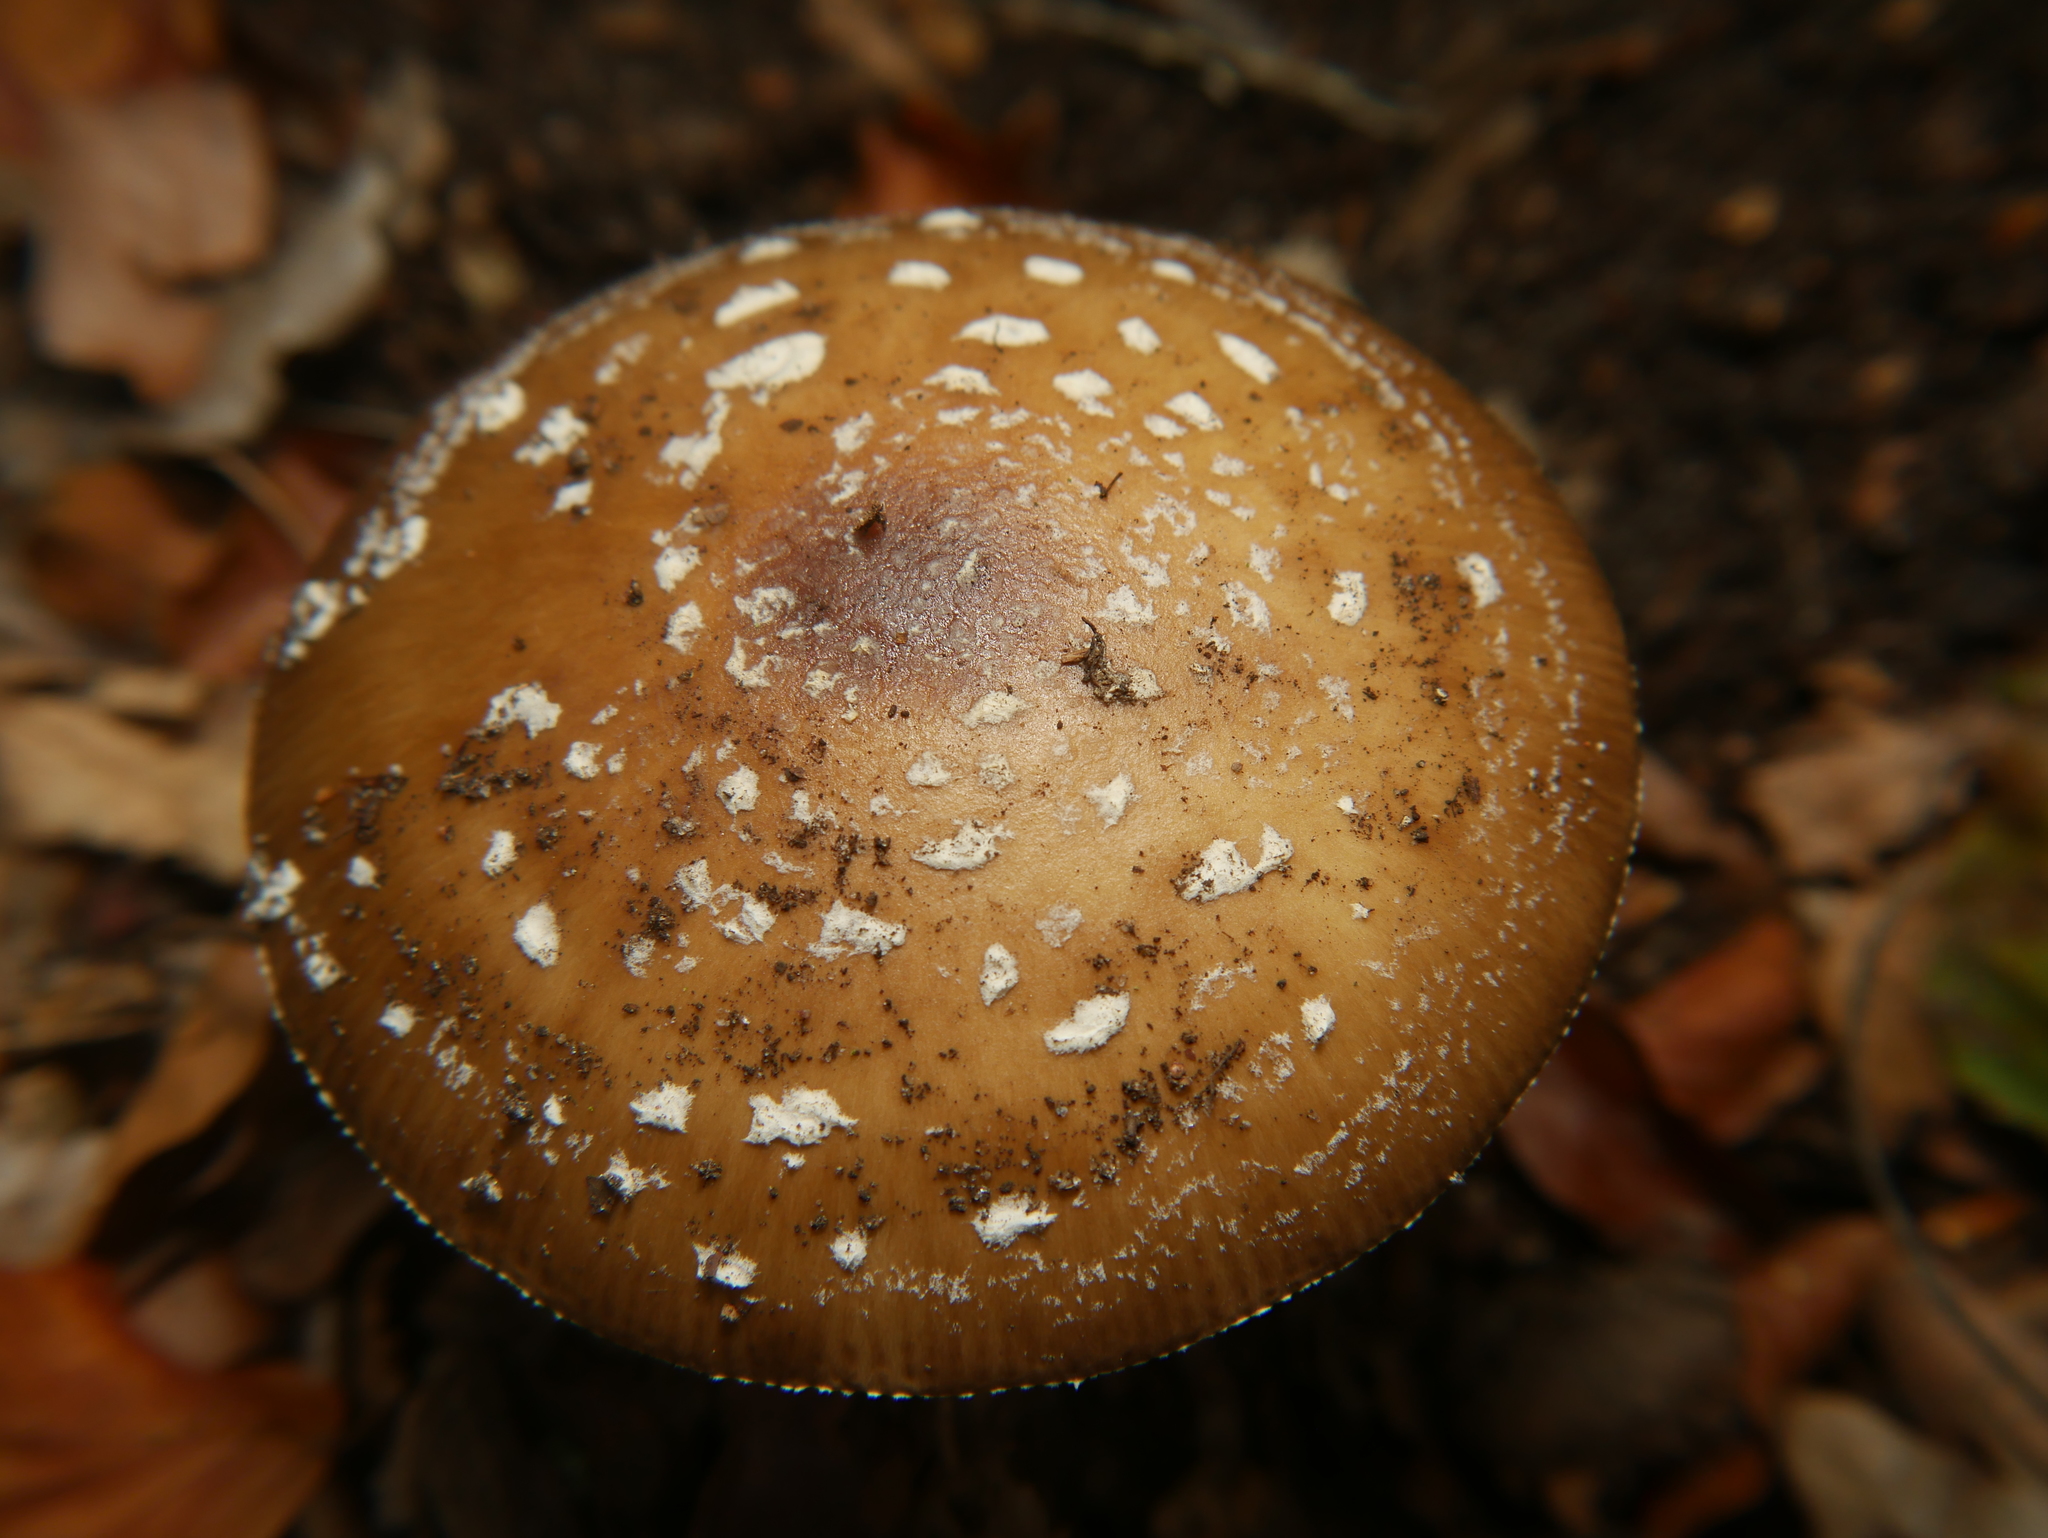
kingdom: Fungi
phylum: Basidiomycota
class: Agaricomycetes
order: Agaricales
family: Amanitaceae
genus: Amanita
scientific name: Amanita pantherina
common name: Panthercap
